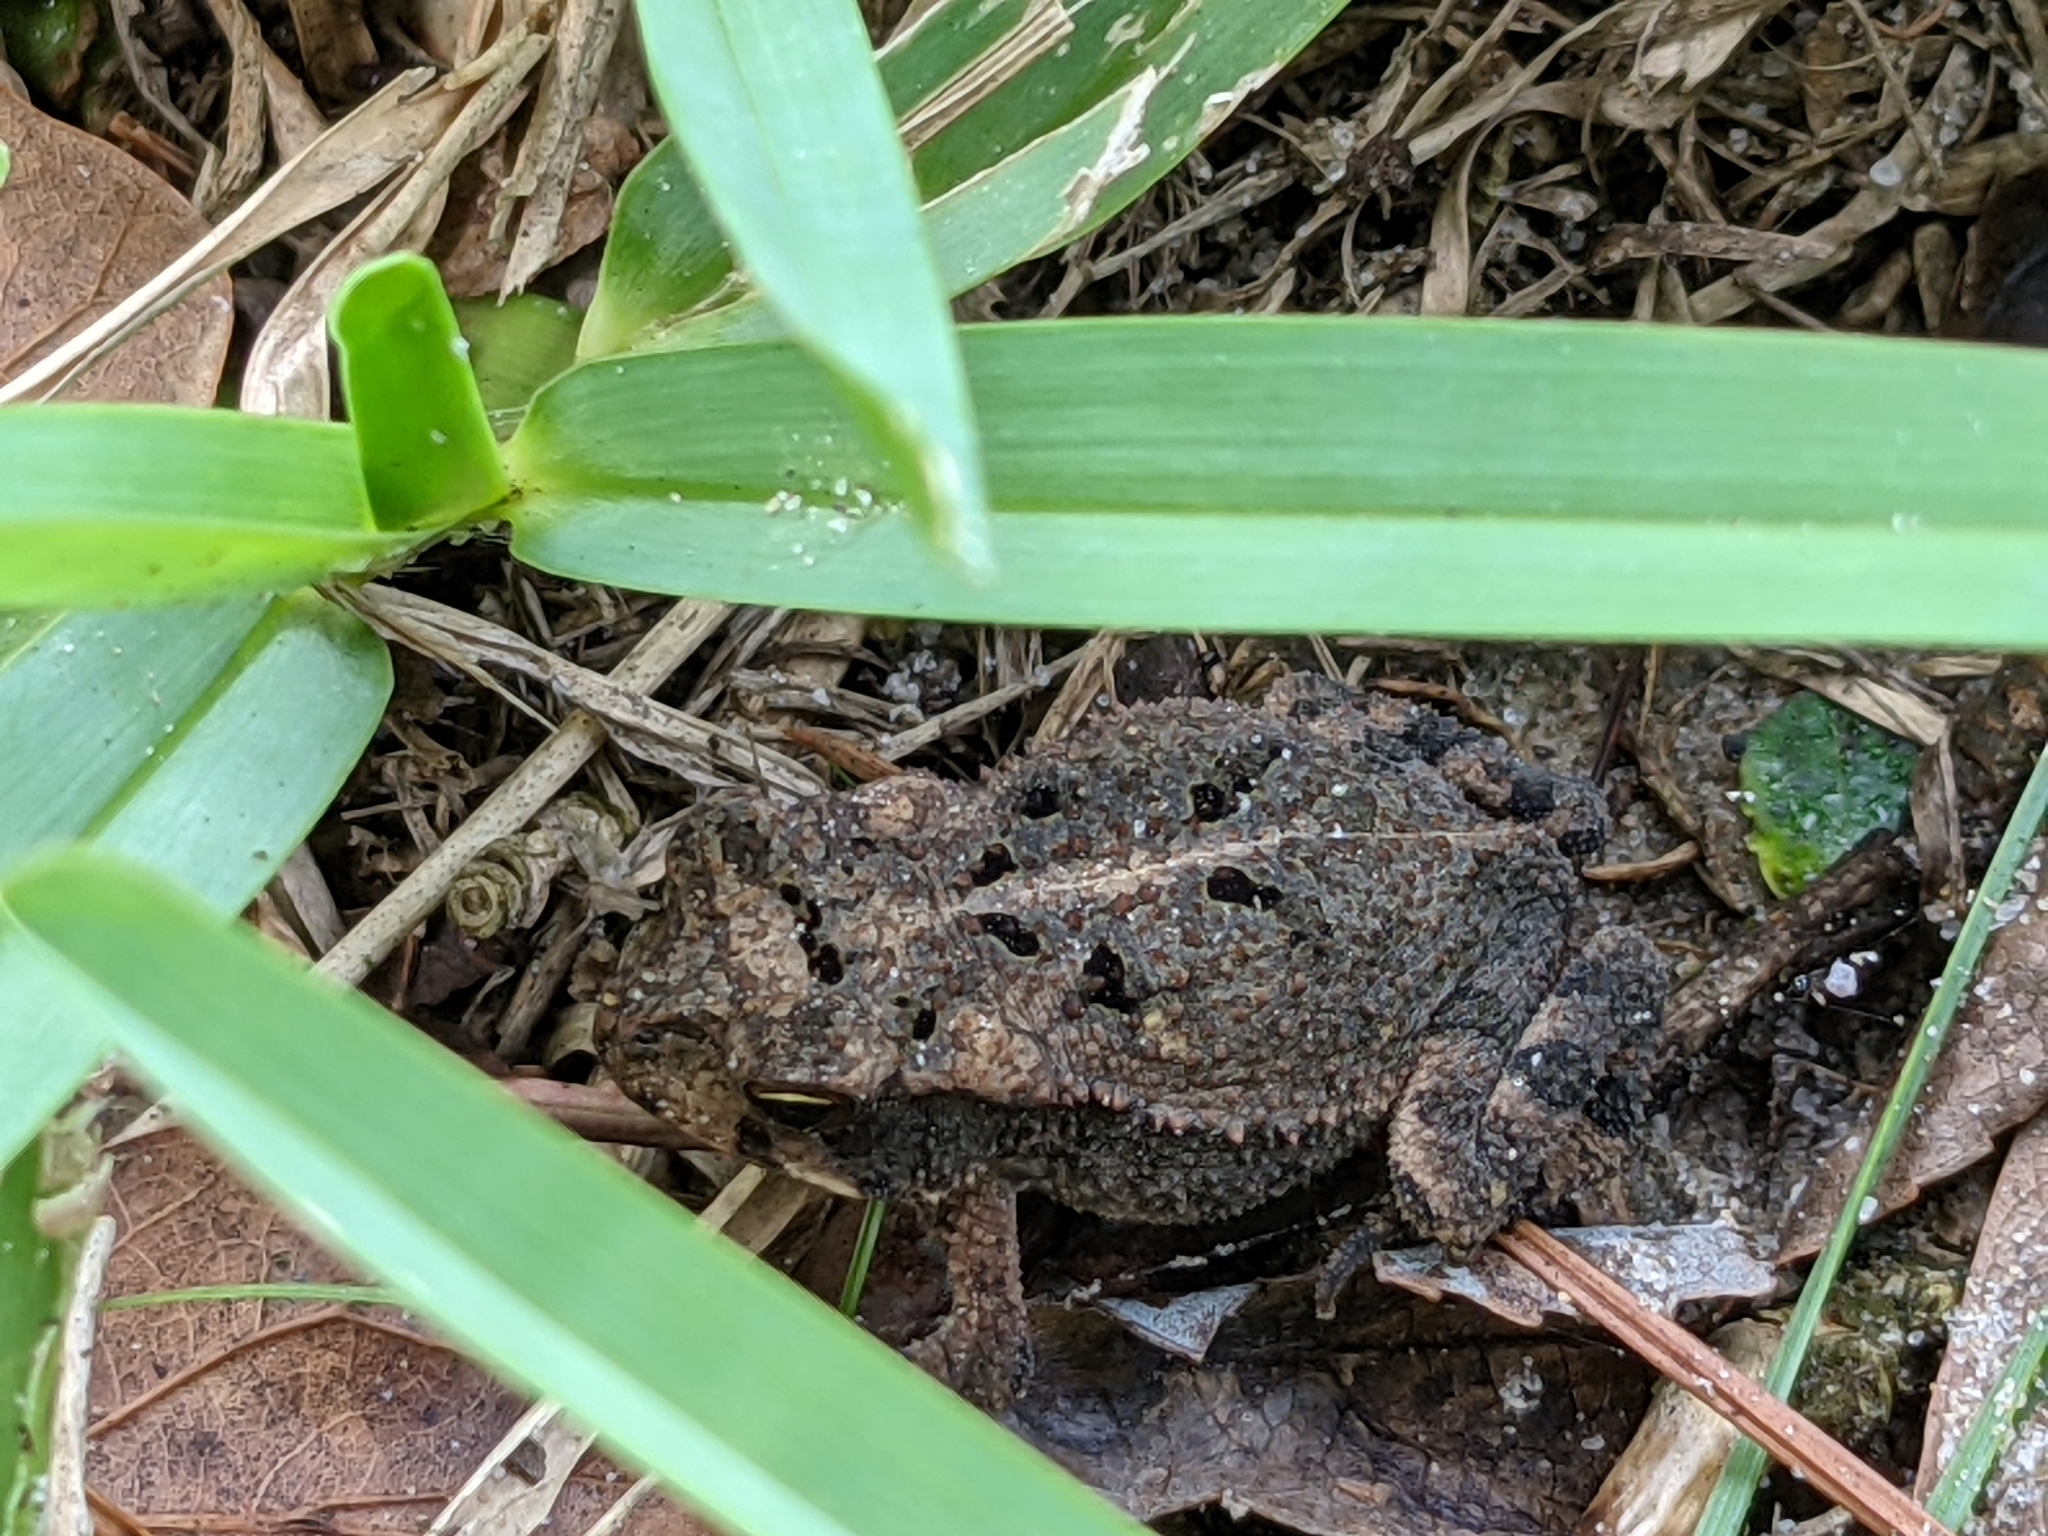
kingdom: Animalia
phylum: Chordata
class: Amphibia
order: Anura
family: Bufonidae
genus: Incilius
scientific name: Incilius nebulifer
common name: Gulf coast toad
